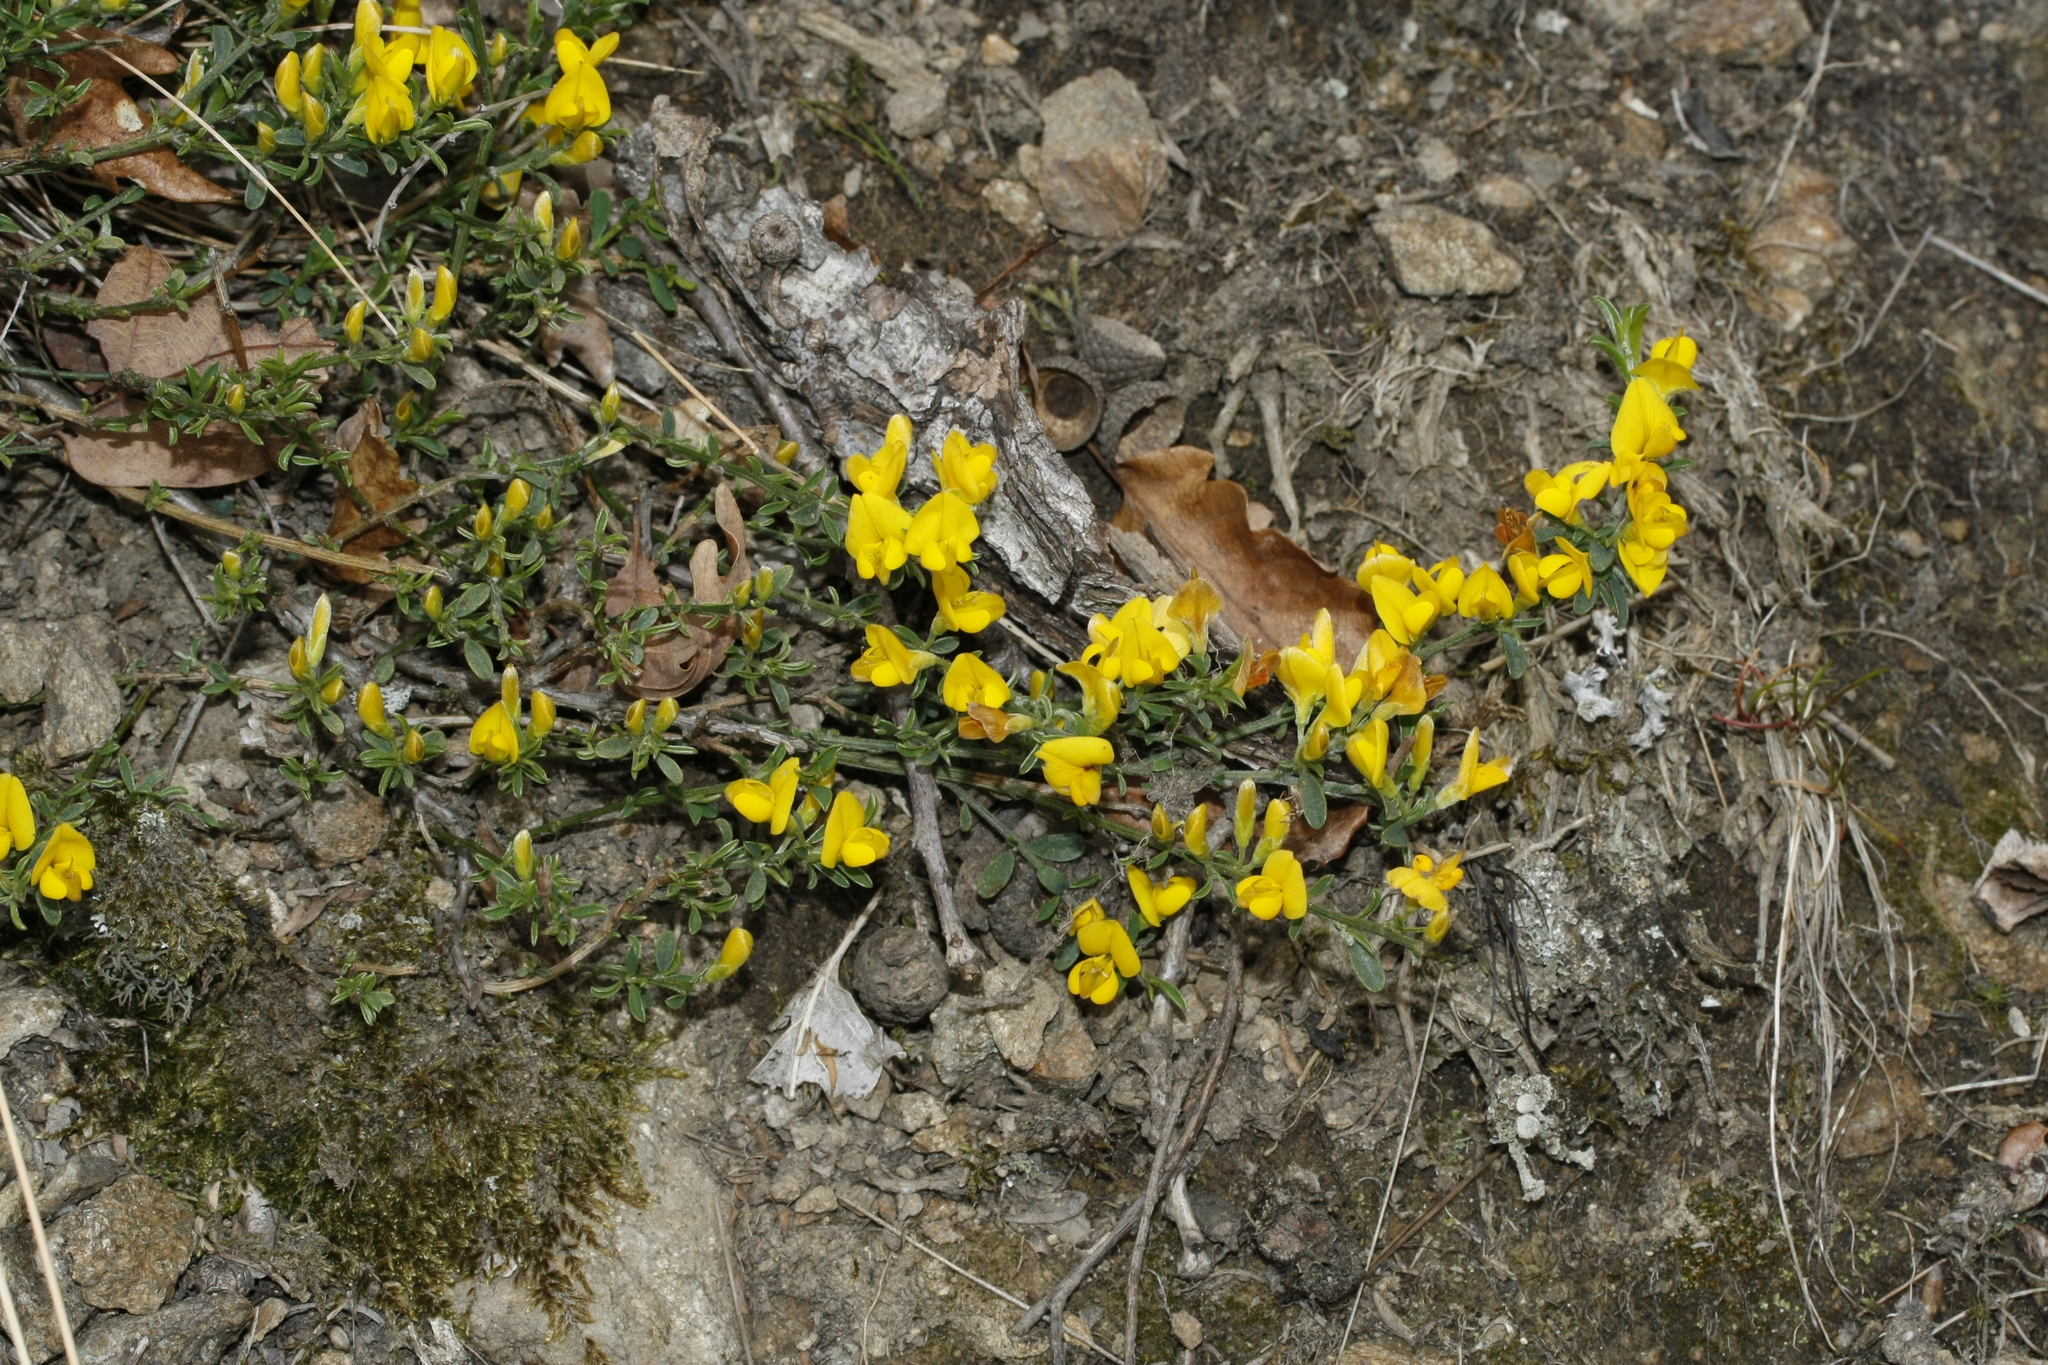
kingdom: Plantae
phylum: Tracheophyta
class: Magnoliopsida
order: Fabales
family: Fabaceae
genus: Genista
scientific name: Genista pilosa
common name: Hairy greenweed
